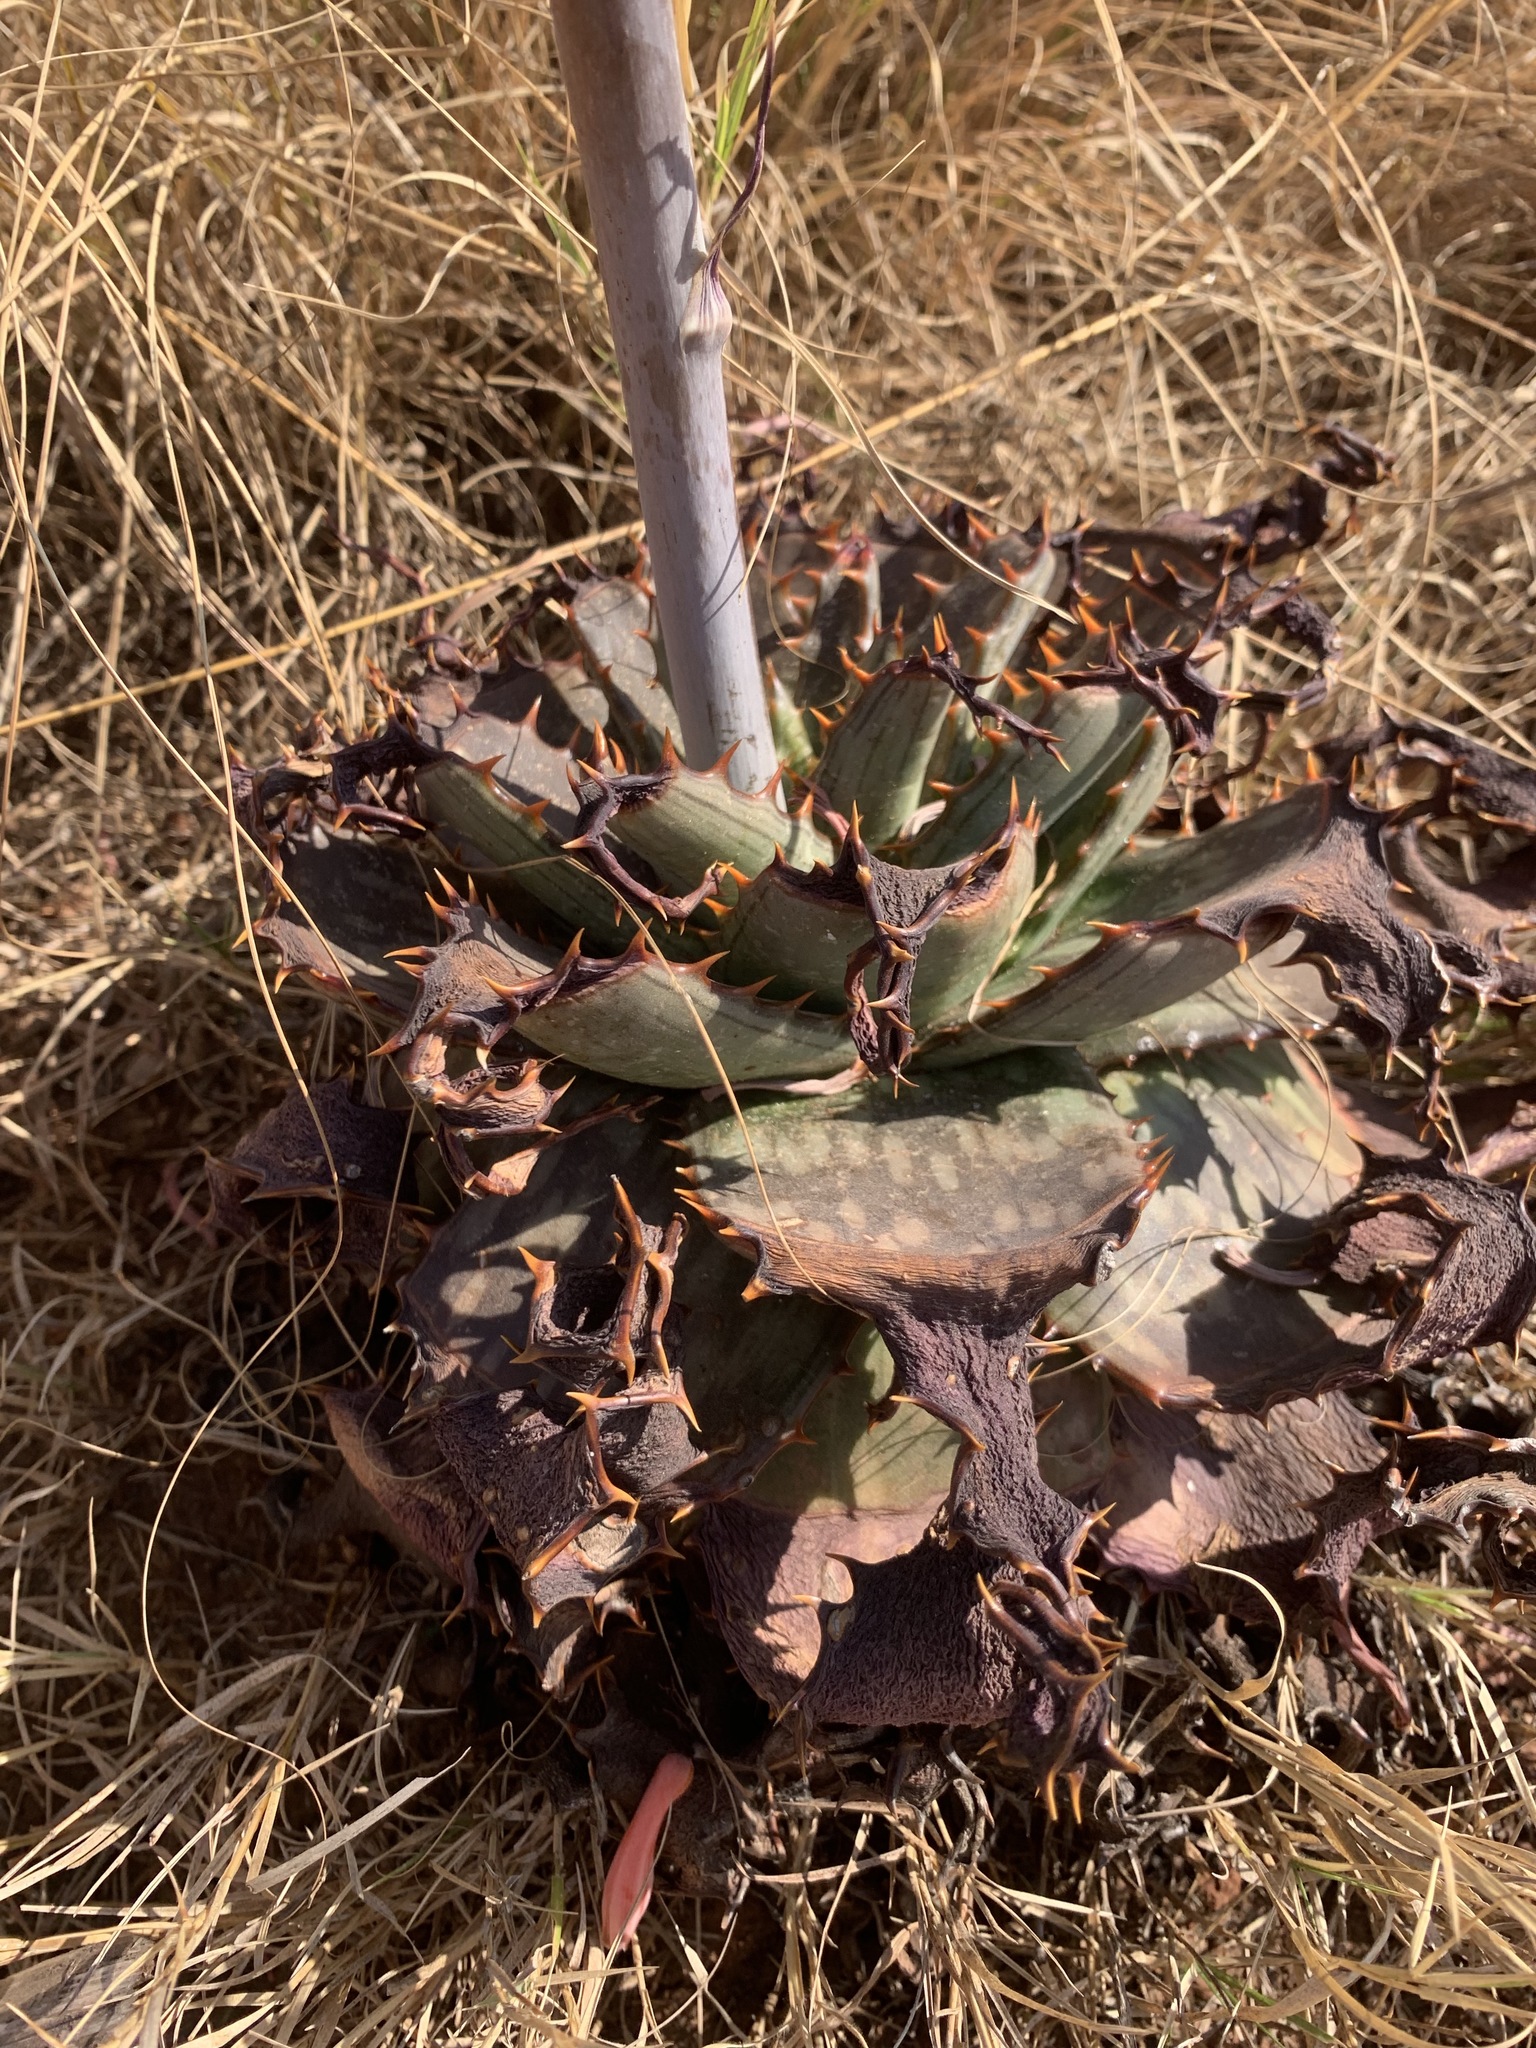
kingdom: Plantae
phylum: Tracheophyta
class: Liliopsida
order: Asparagales
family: Asphodelaceae
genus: Aloe
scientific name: Aloe davyana
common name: Spotted aloe
